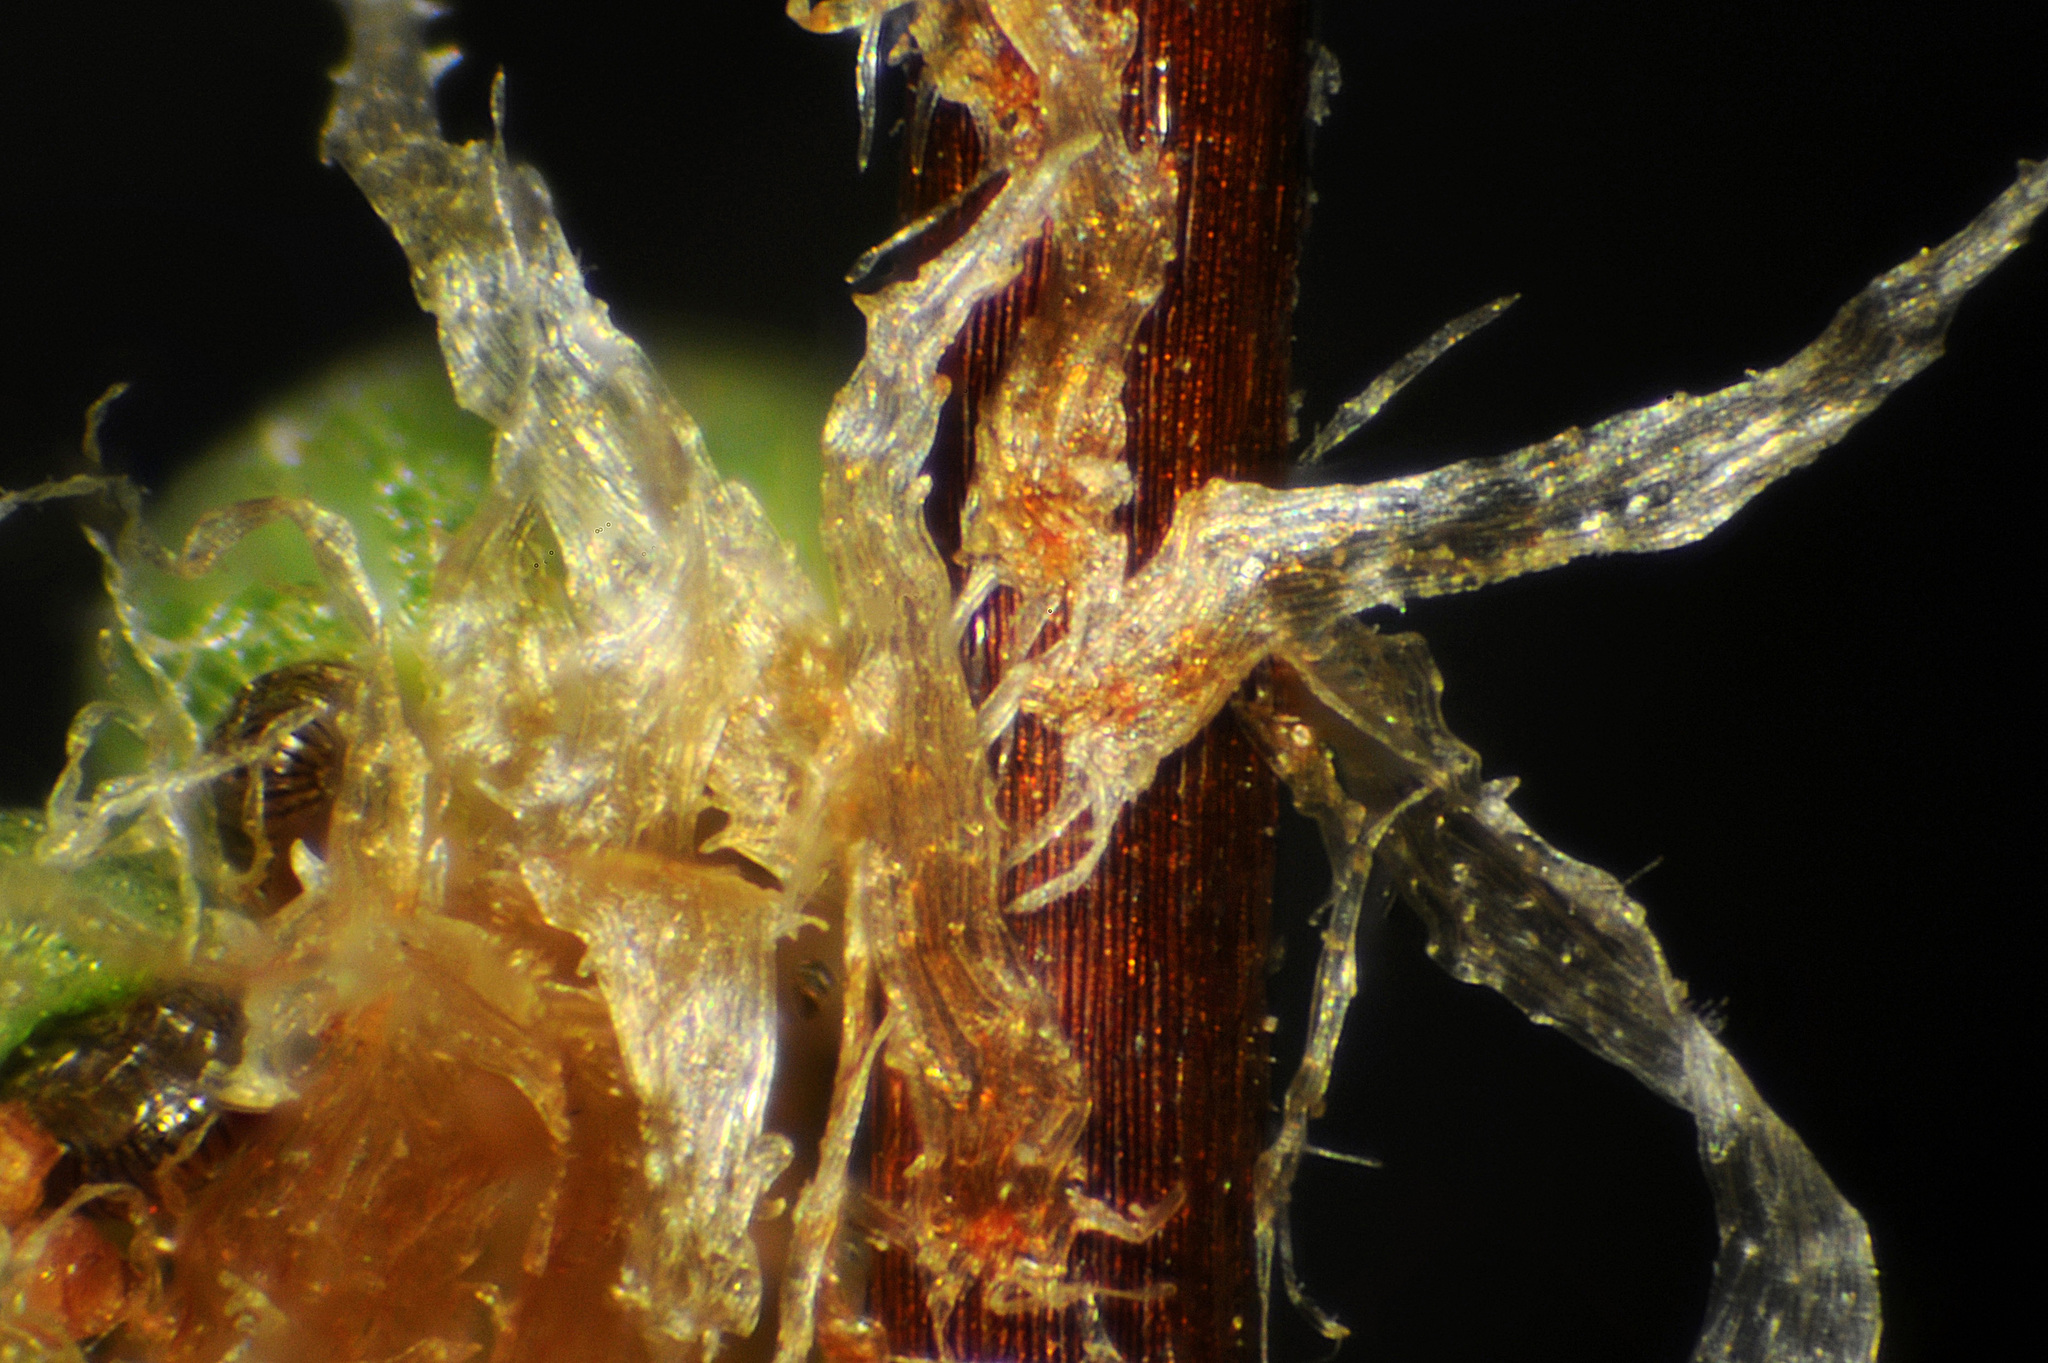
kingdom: Plantae
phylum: Tracheophyta
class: Polypodiopsida
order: Polypodiales
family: Pteridaceae
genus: Myriopteris
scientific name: Myriopteris intertexta
